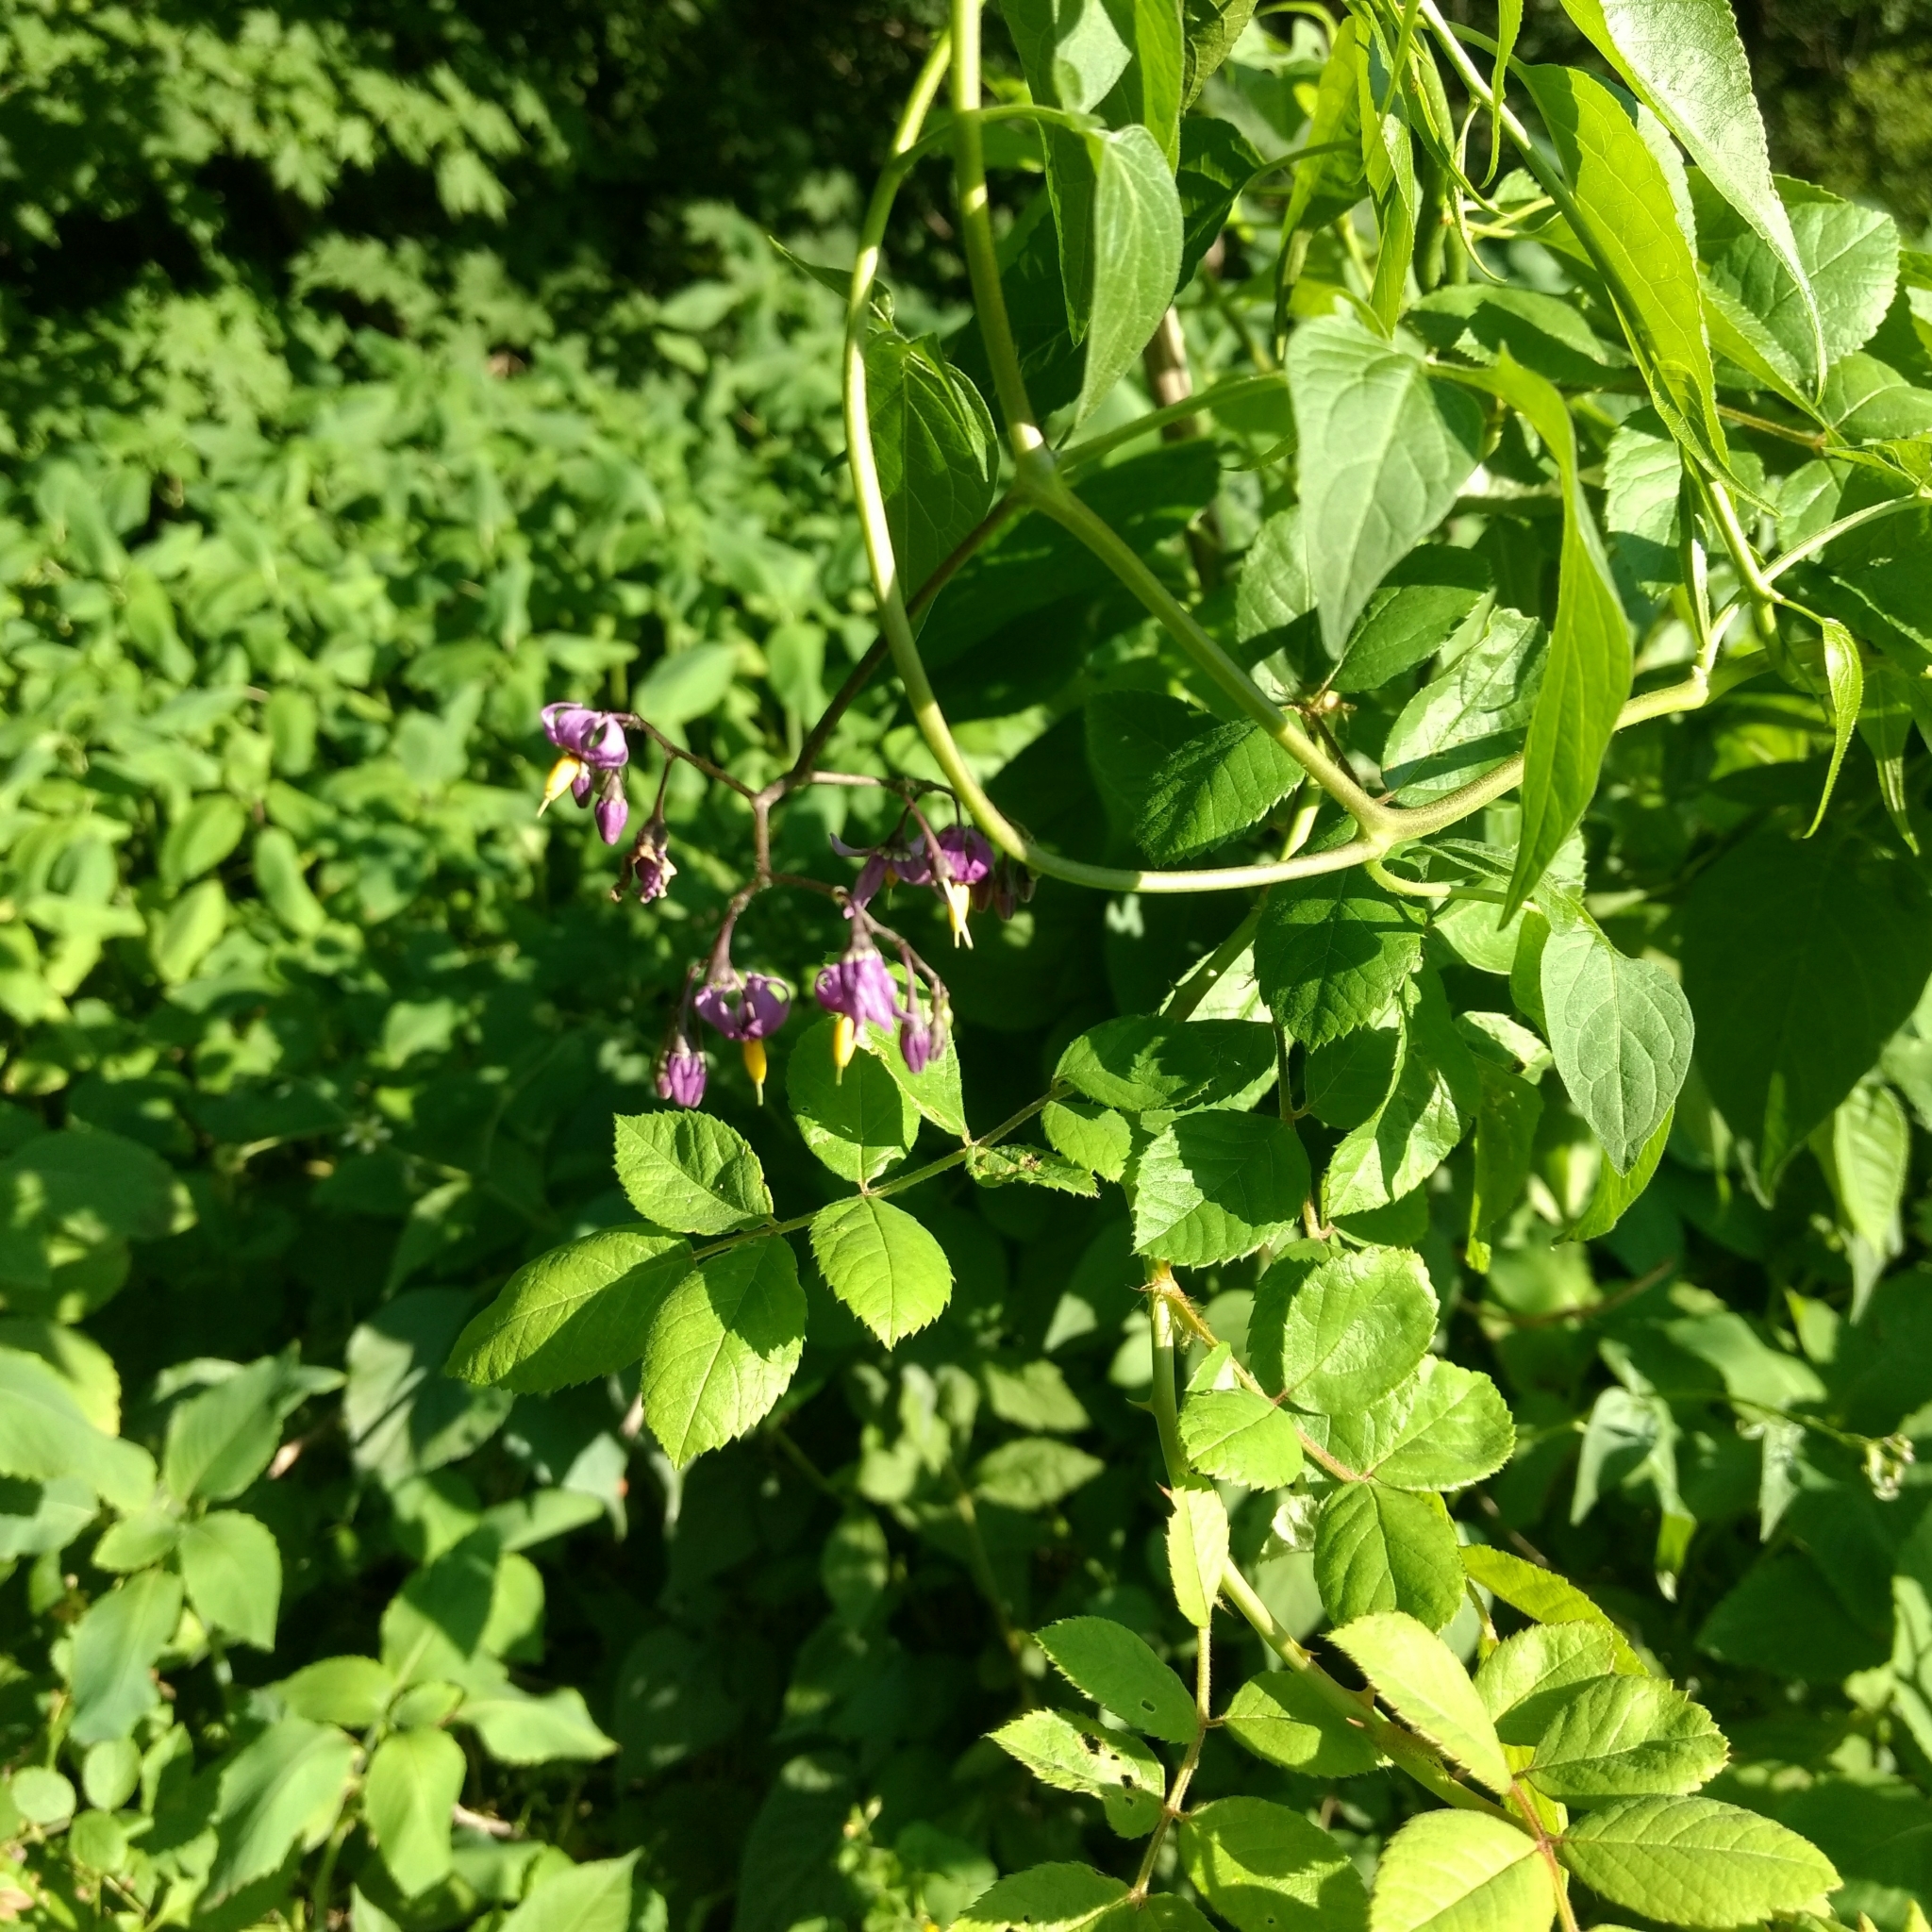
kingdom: Plantae
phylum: Tracheophyta
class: Magnoliopsida
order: Solanales
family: Solanaceae
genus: Solanum
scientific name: Solanum dulcamara
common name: Climbing nightshade
